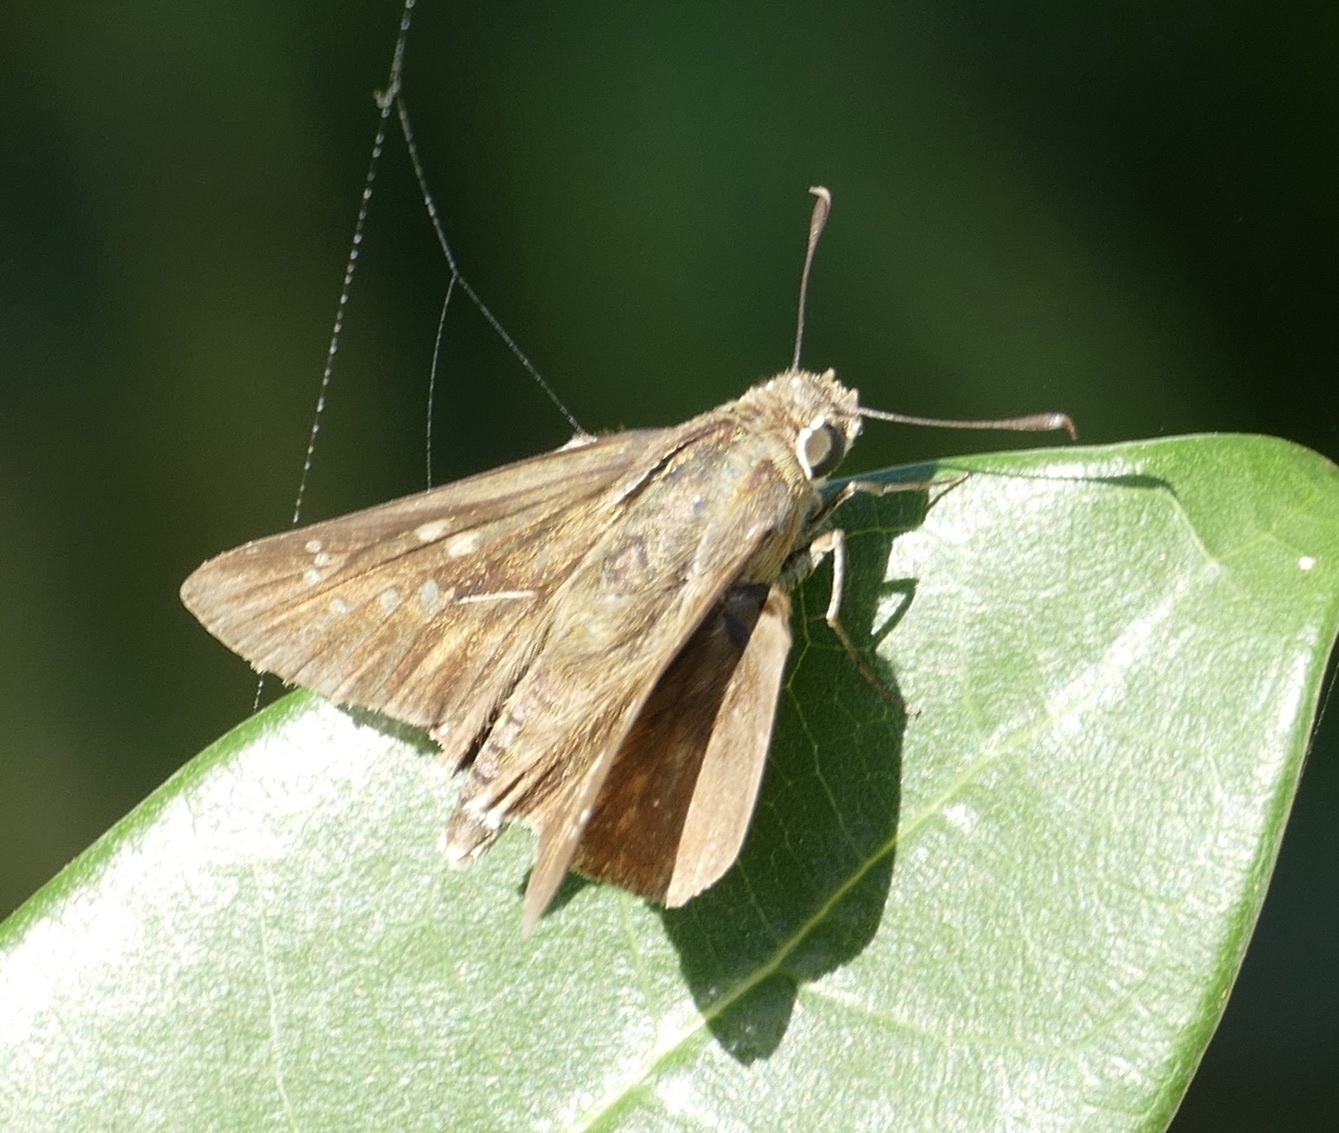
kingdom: Animalia
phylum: Arthropoda
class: Insecta
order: Lepidoptera
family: Hesperiidae
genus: Pelopidas
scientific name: Pelopidas mathias
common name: Black-branded swift
